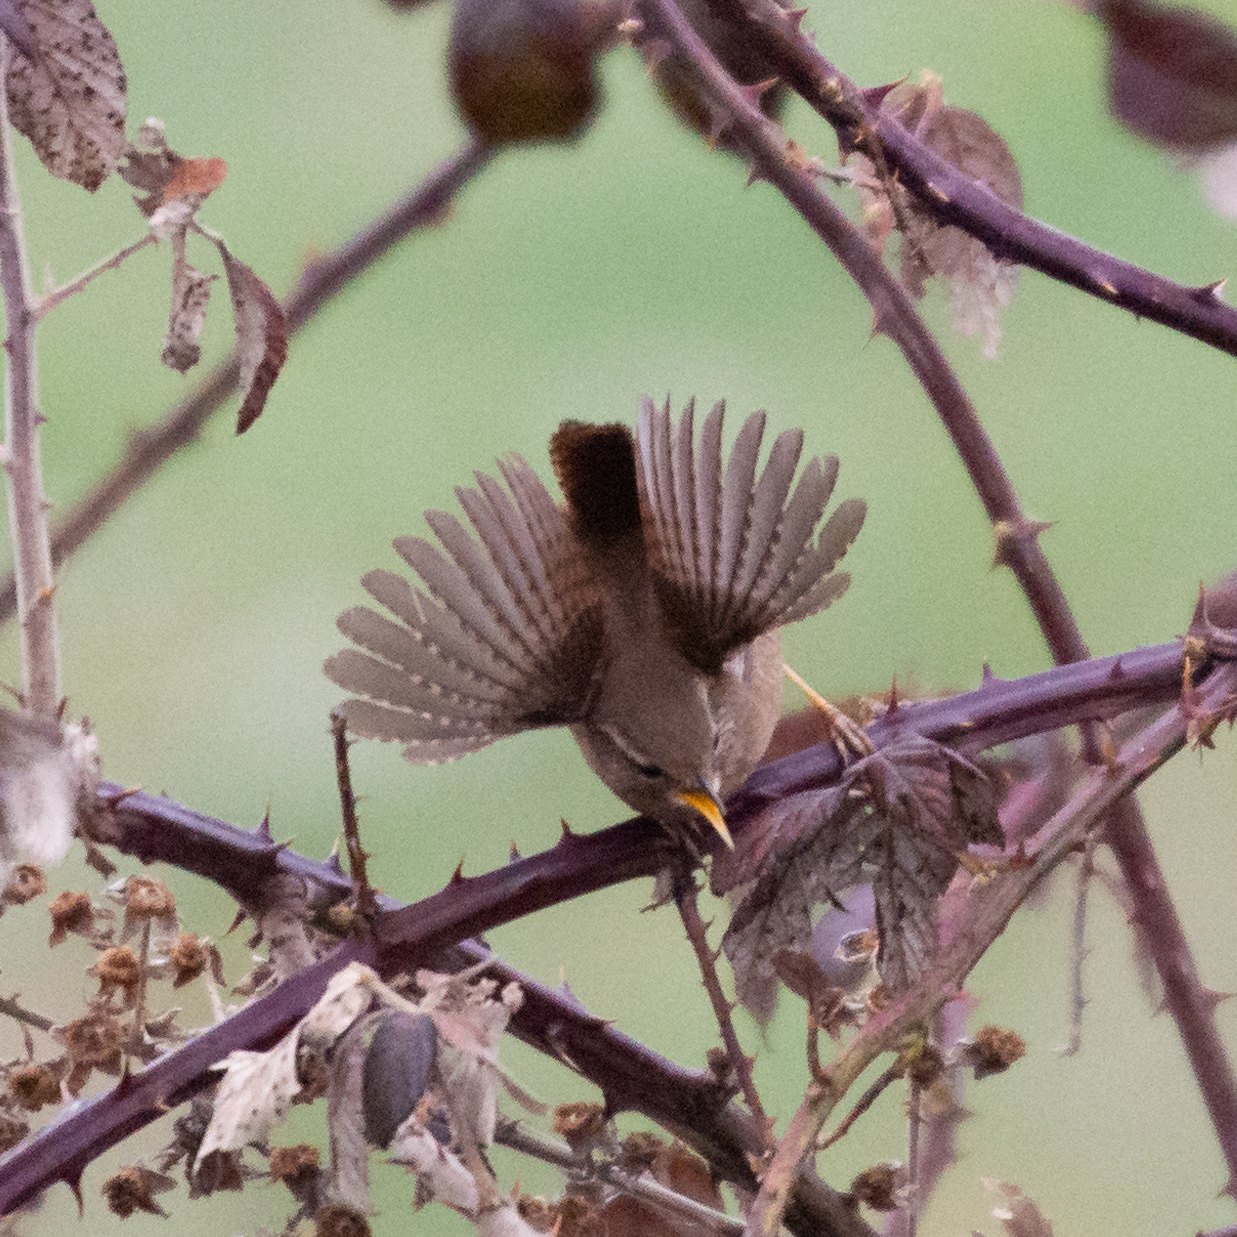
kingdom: Animalia
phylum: Chordata
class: Aves
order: Passeriformes
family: Troglodytidae
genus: Troglodytes
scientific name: Troglodytes troglodytes
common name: Eurasian wren
